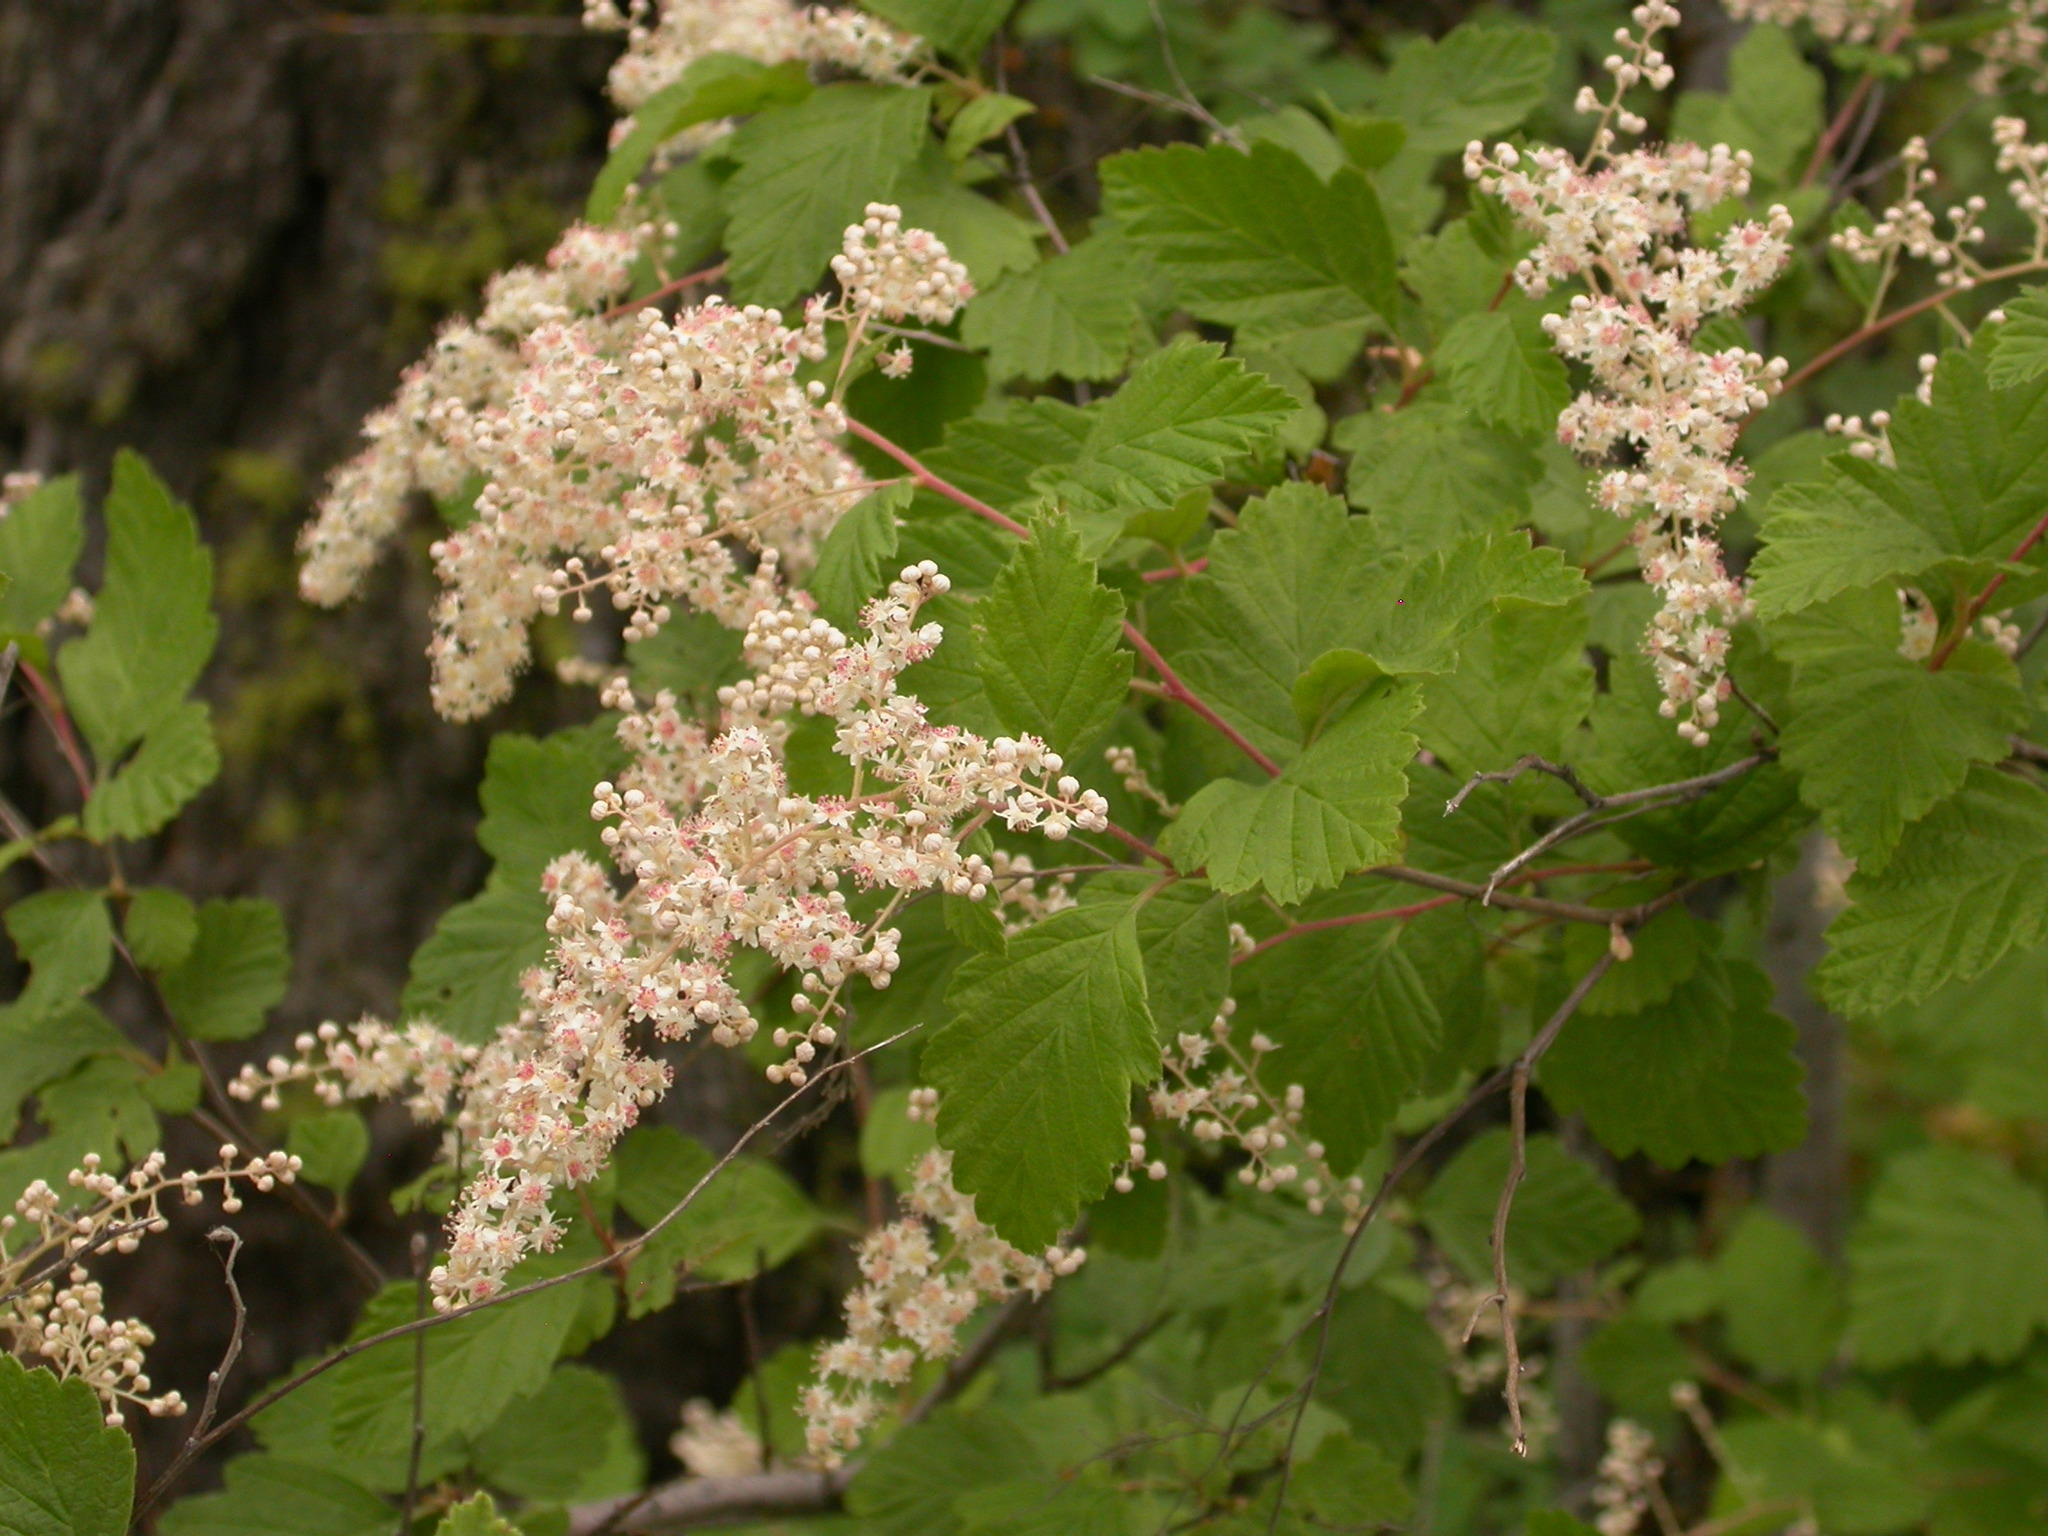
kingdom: Plantae
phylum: Tracheophyta
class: Magnoliopsida
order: Rosales
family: Rosaceae
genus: Holodiscus
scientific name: Holodiscus discolor
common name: Oceanspray
